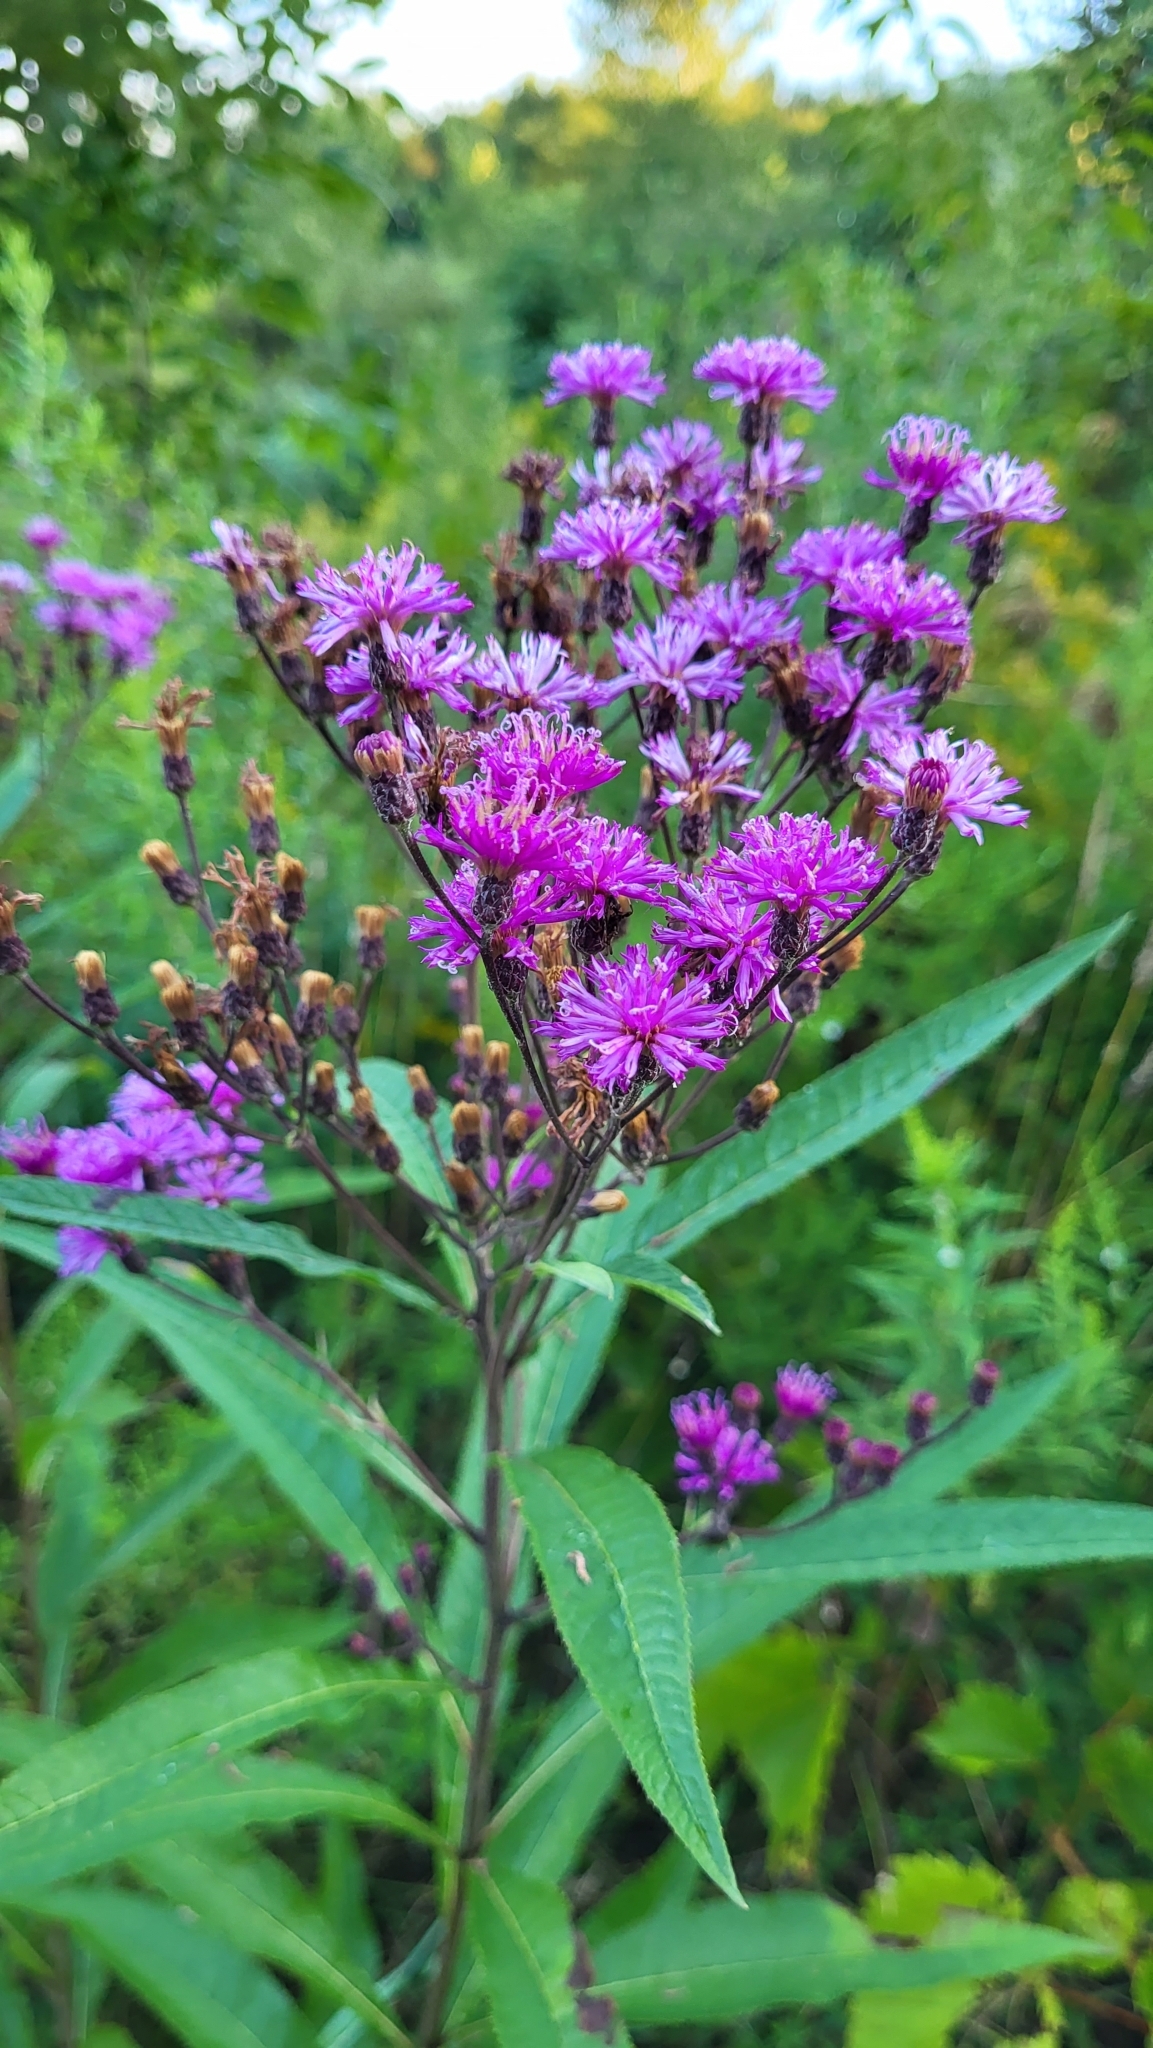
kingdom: Plantae
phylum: Tracheophyta
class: Magnoliopsida
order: Asterales
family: Asteraceae
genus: Vernonia
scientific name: Vernonia noveboracensis
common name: New york ironweed
